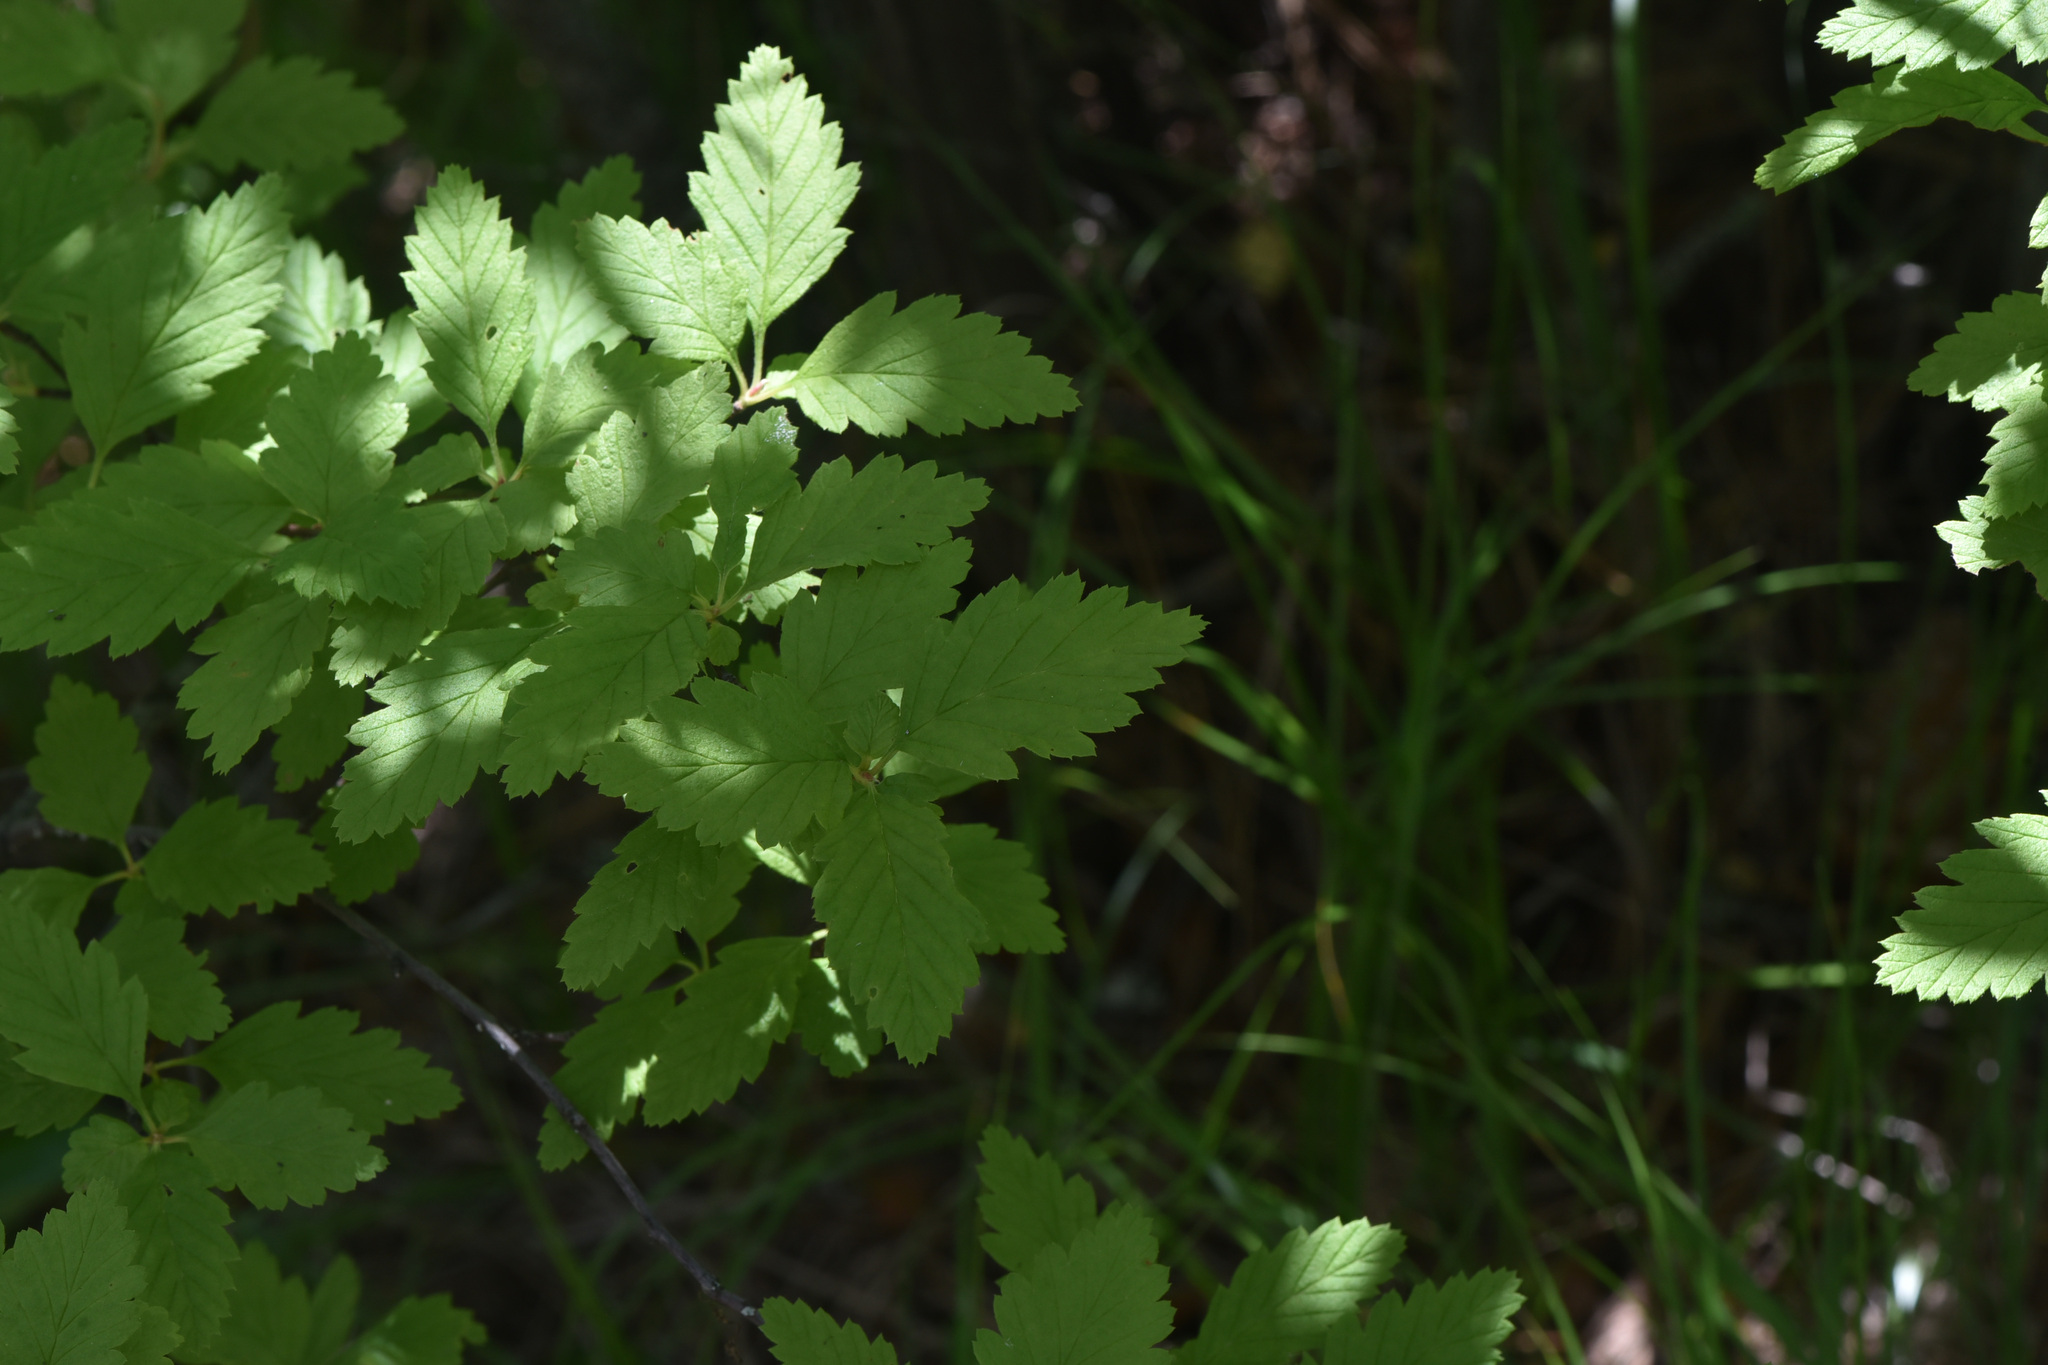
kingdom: Plantae
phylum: Tracheophyta
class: Magnoliopsida
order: Rosales
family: Rosaceae
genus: Holodiscus
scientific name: Holodiscus discolor
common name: Oceanspray
